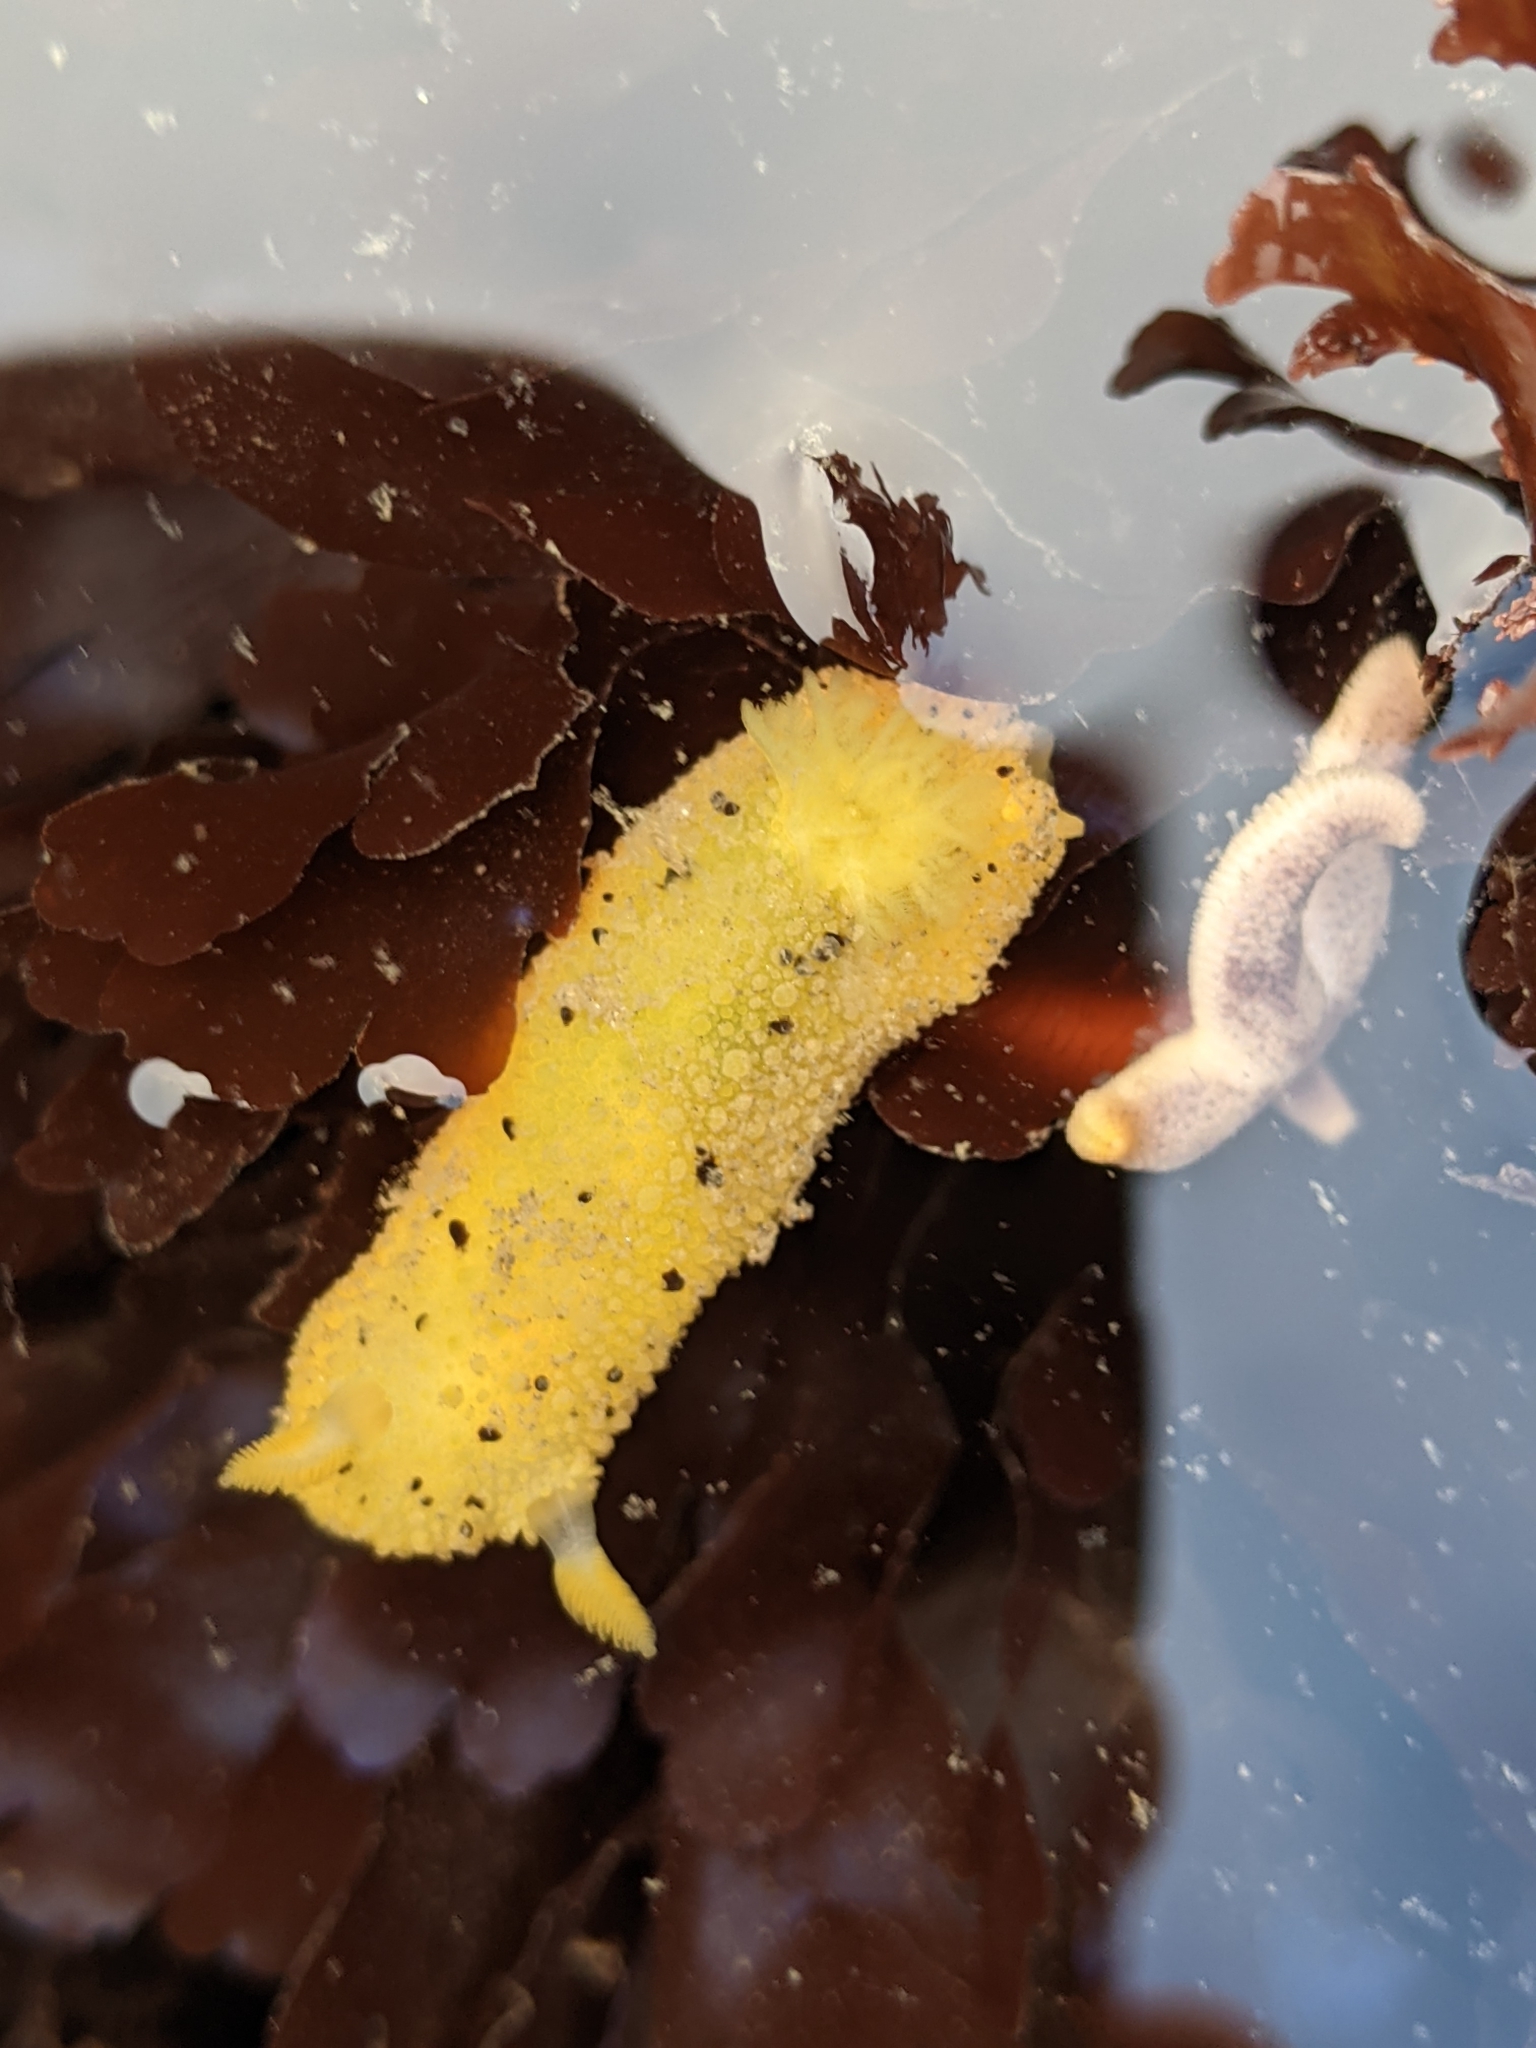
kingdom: Animalia
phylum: Mollusca
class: Gastropoda
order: Nudibranchia
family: Dorididae
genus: Doris
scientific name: Doris montereyensis
